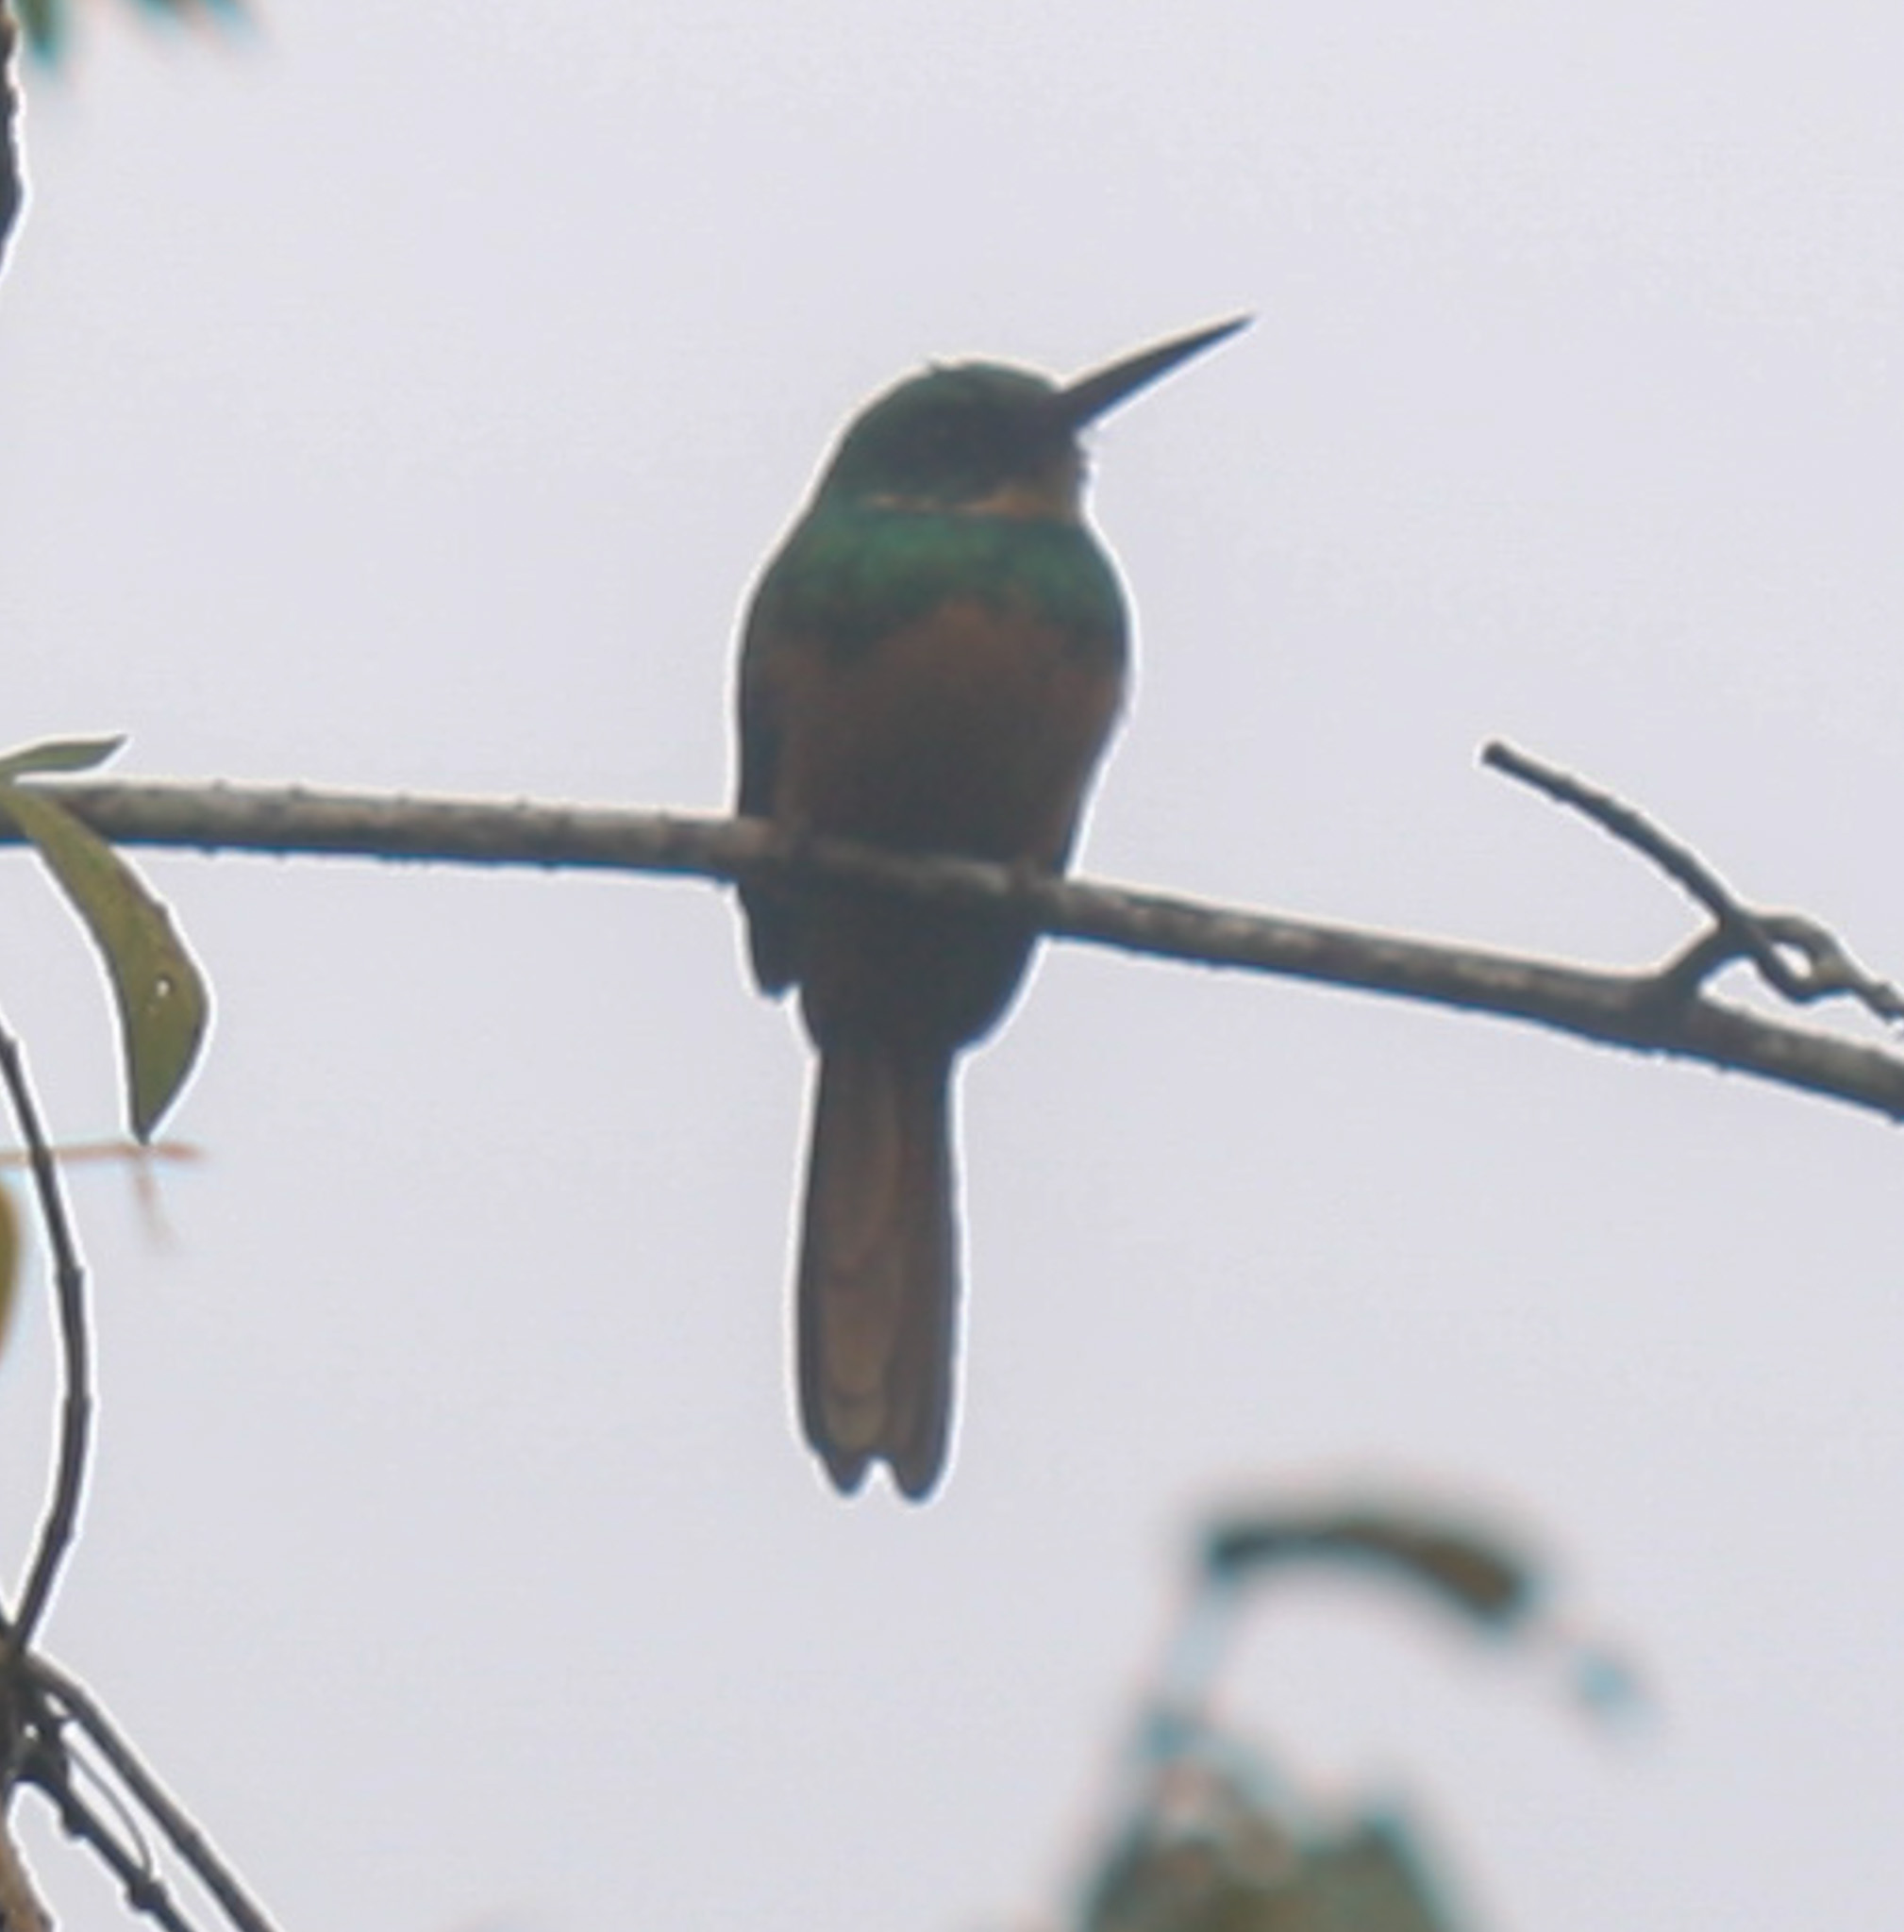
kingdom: Animalia
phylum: Chordata
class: Aves
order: Piciformes
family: Galbulidae
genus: Galbula
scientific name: Galbula ruficauda
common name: Rufous-tailed jacamar
